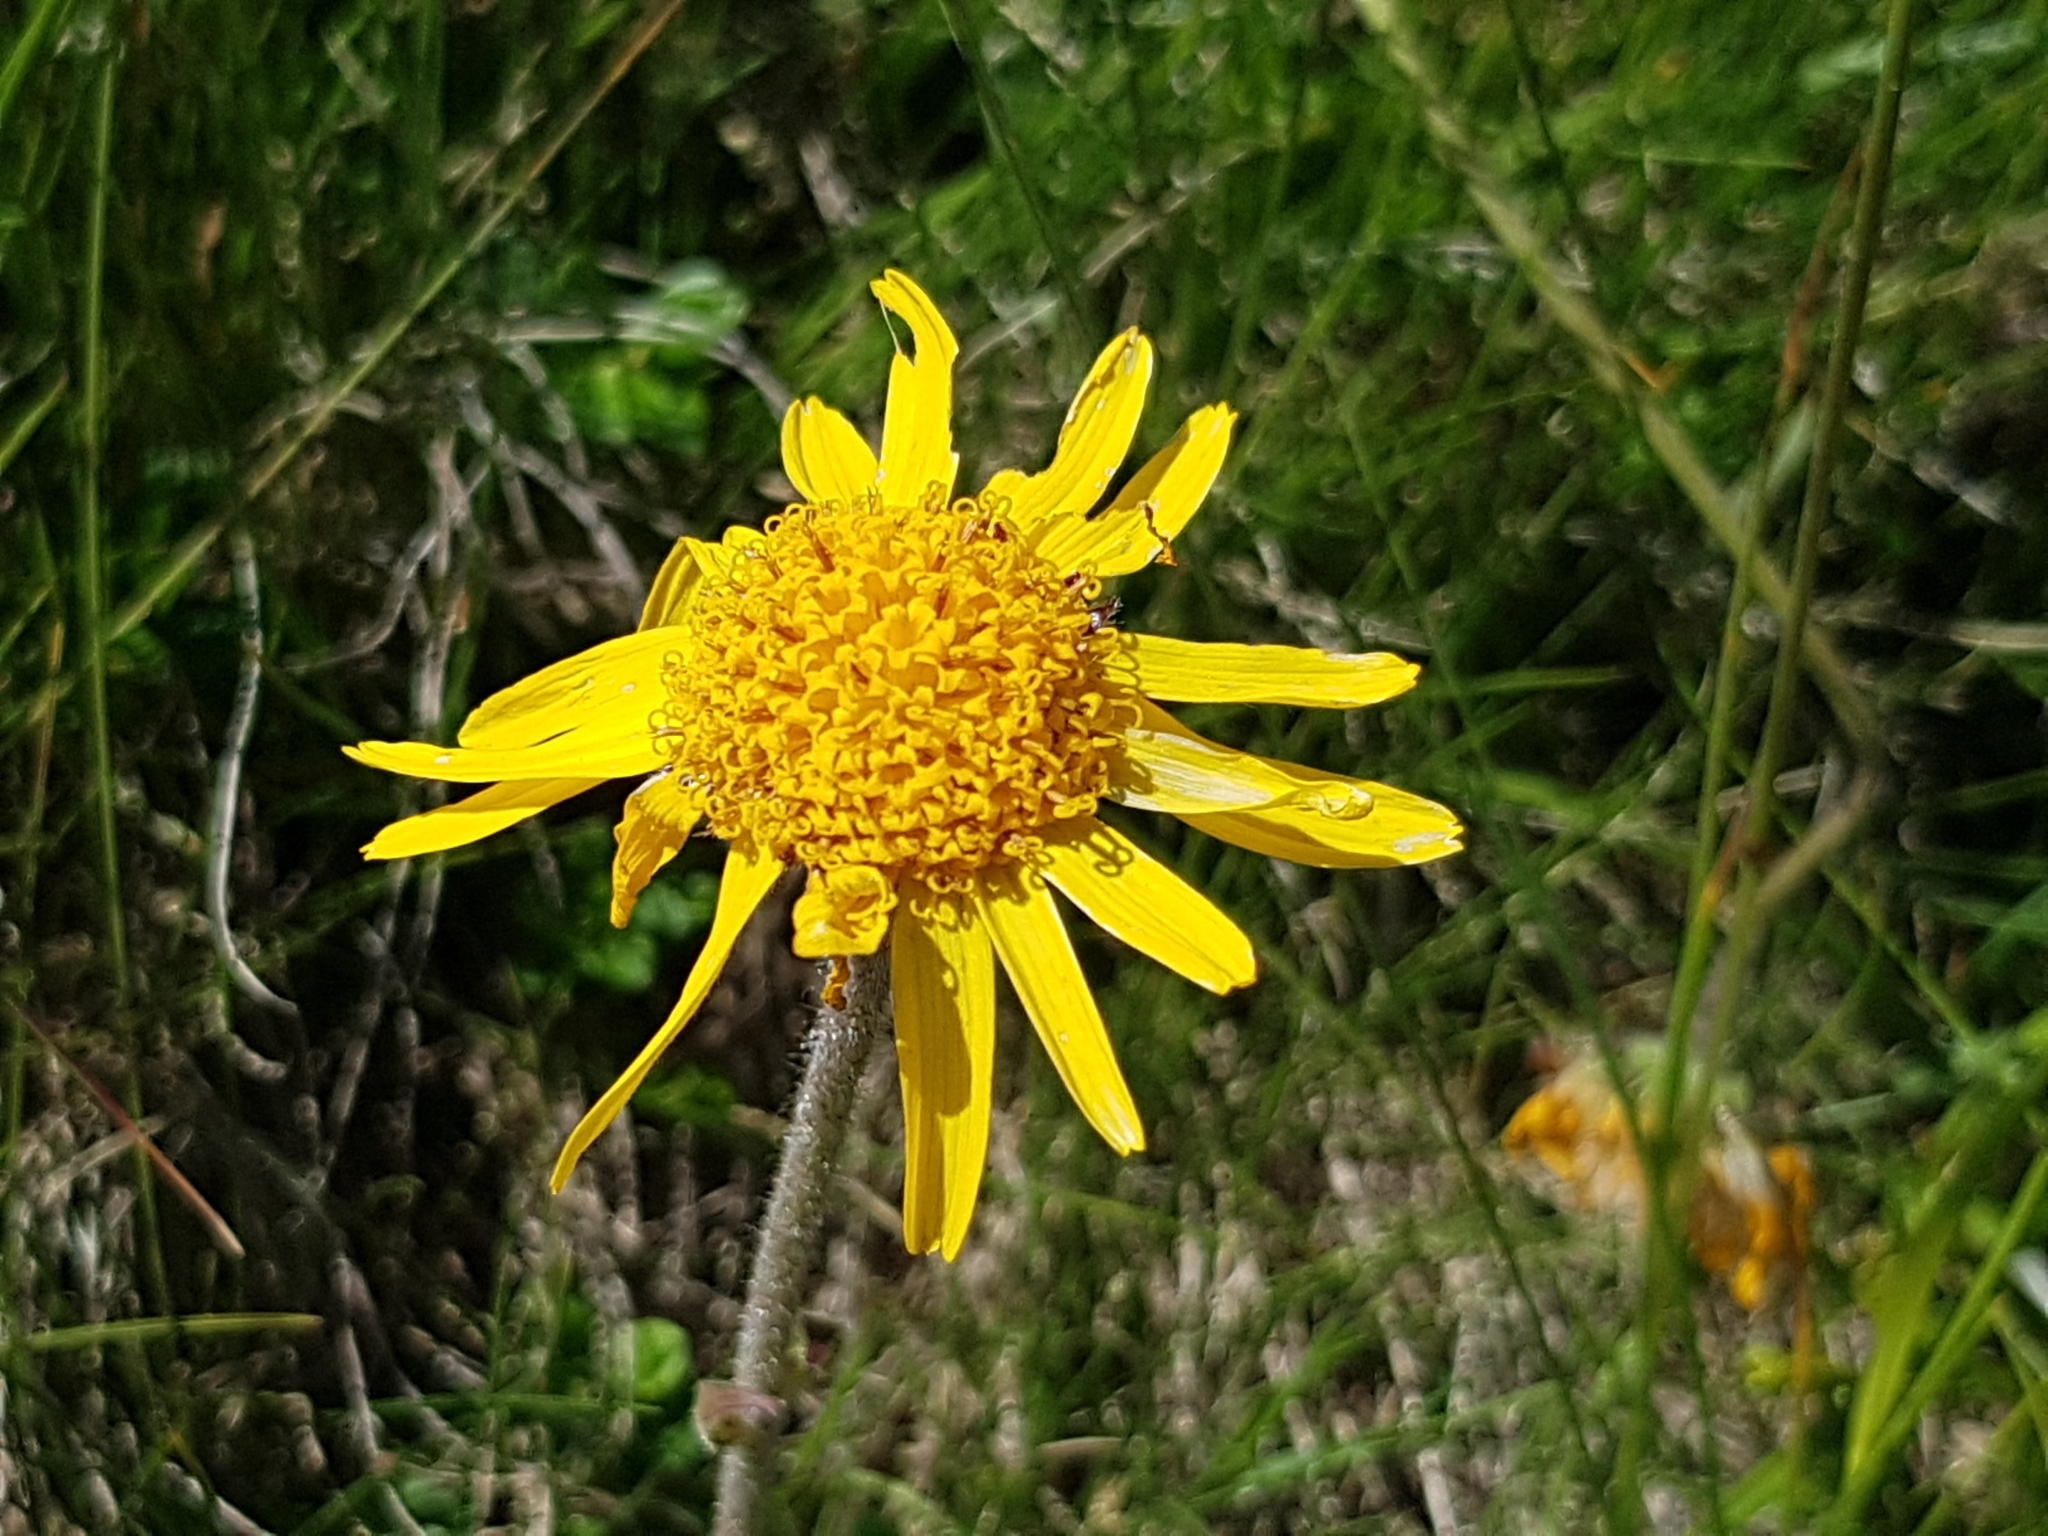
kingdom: Plantae
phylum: Tracheophyta
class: Magnoliopsida
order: Asterales
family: Asteraceae
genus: Arnica
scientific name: Arnica montana
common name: Leopard's bane
